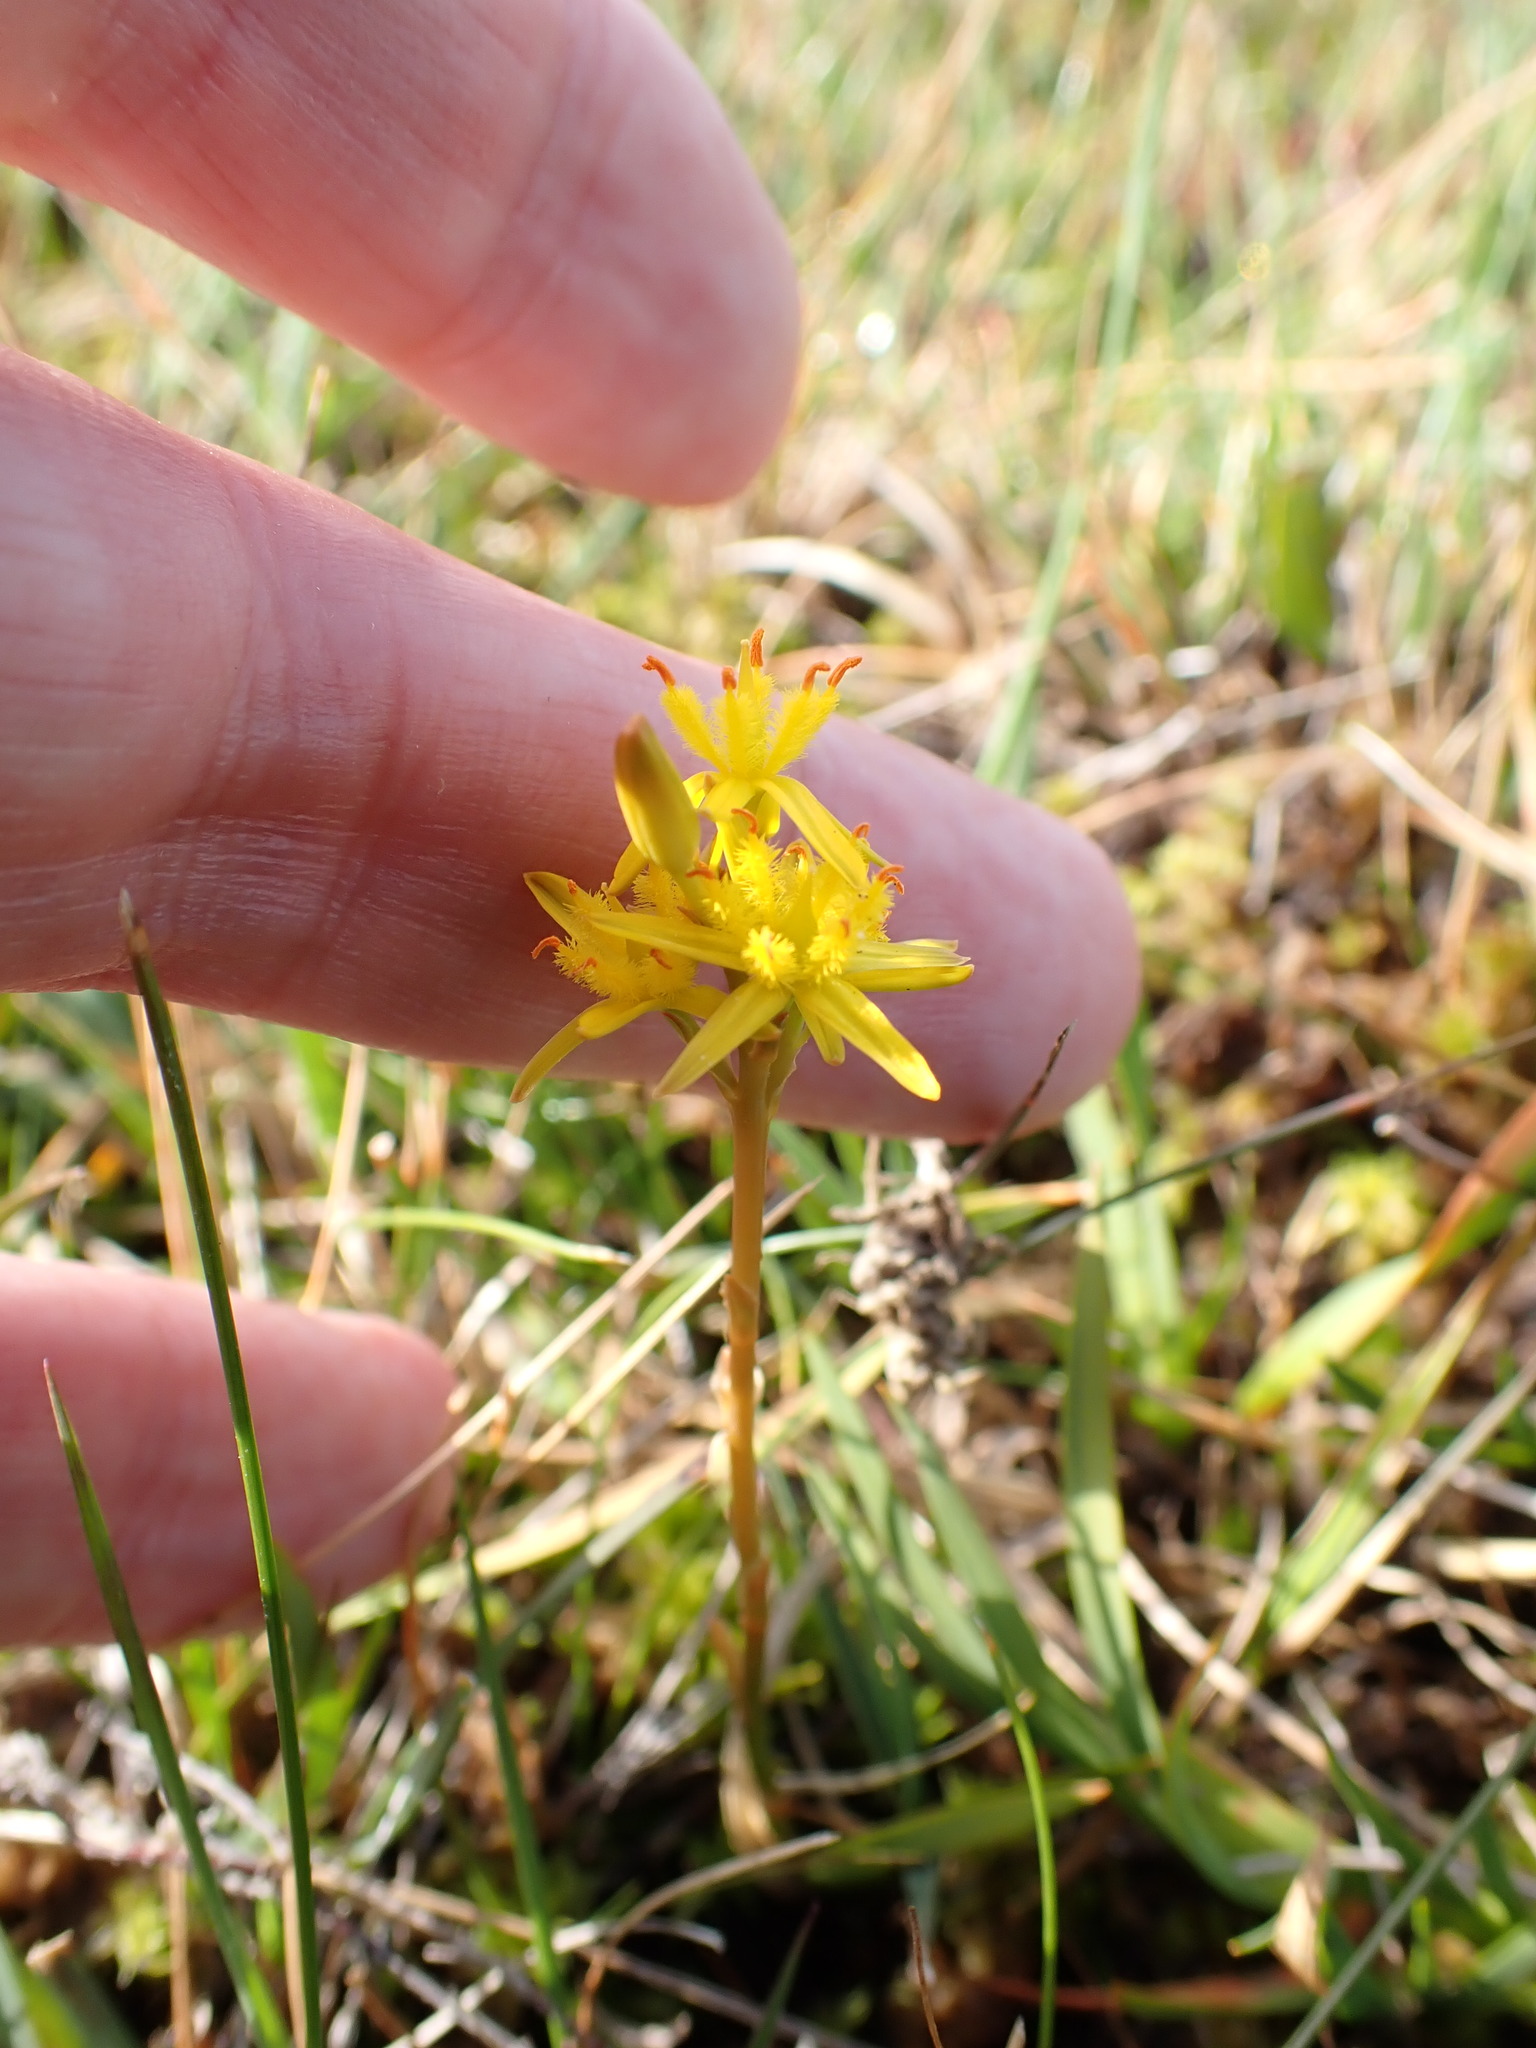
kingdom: Plantae
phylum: Tracheophyta
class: Liliopsida
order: Dioscoreales
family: Nartheciaceae
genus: Narthecium
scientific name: Narthecium ossifragum
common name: Bog asphodel
